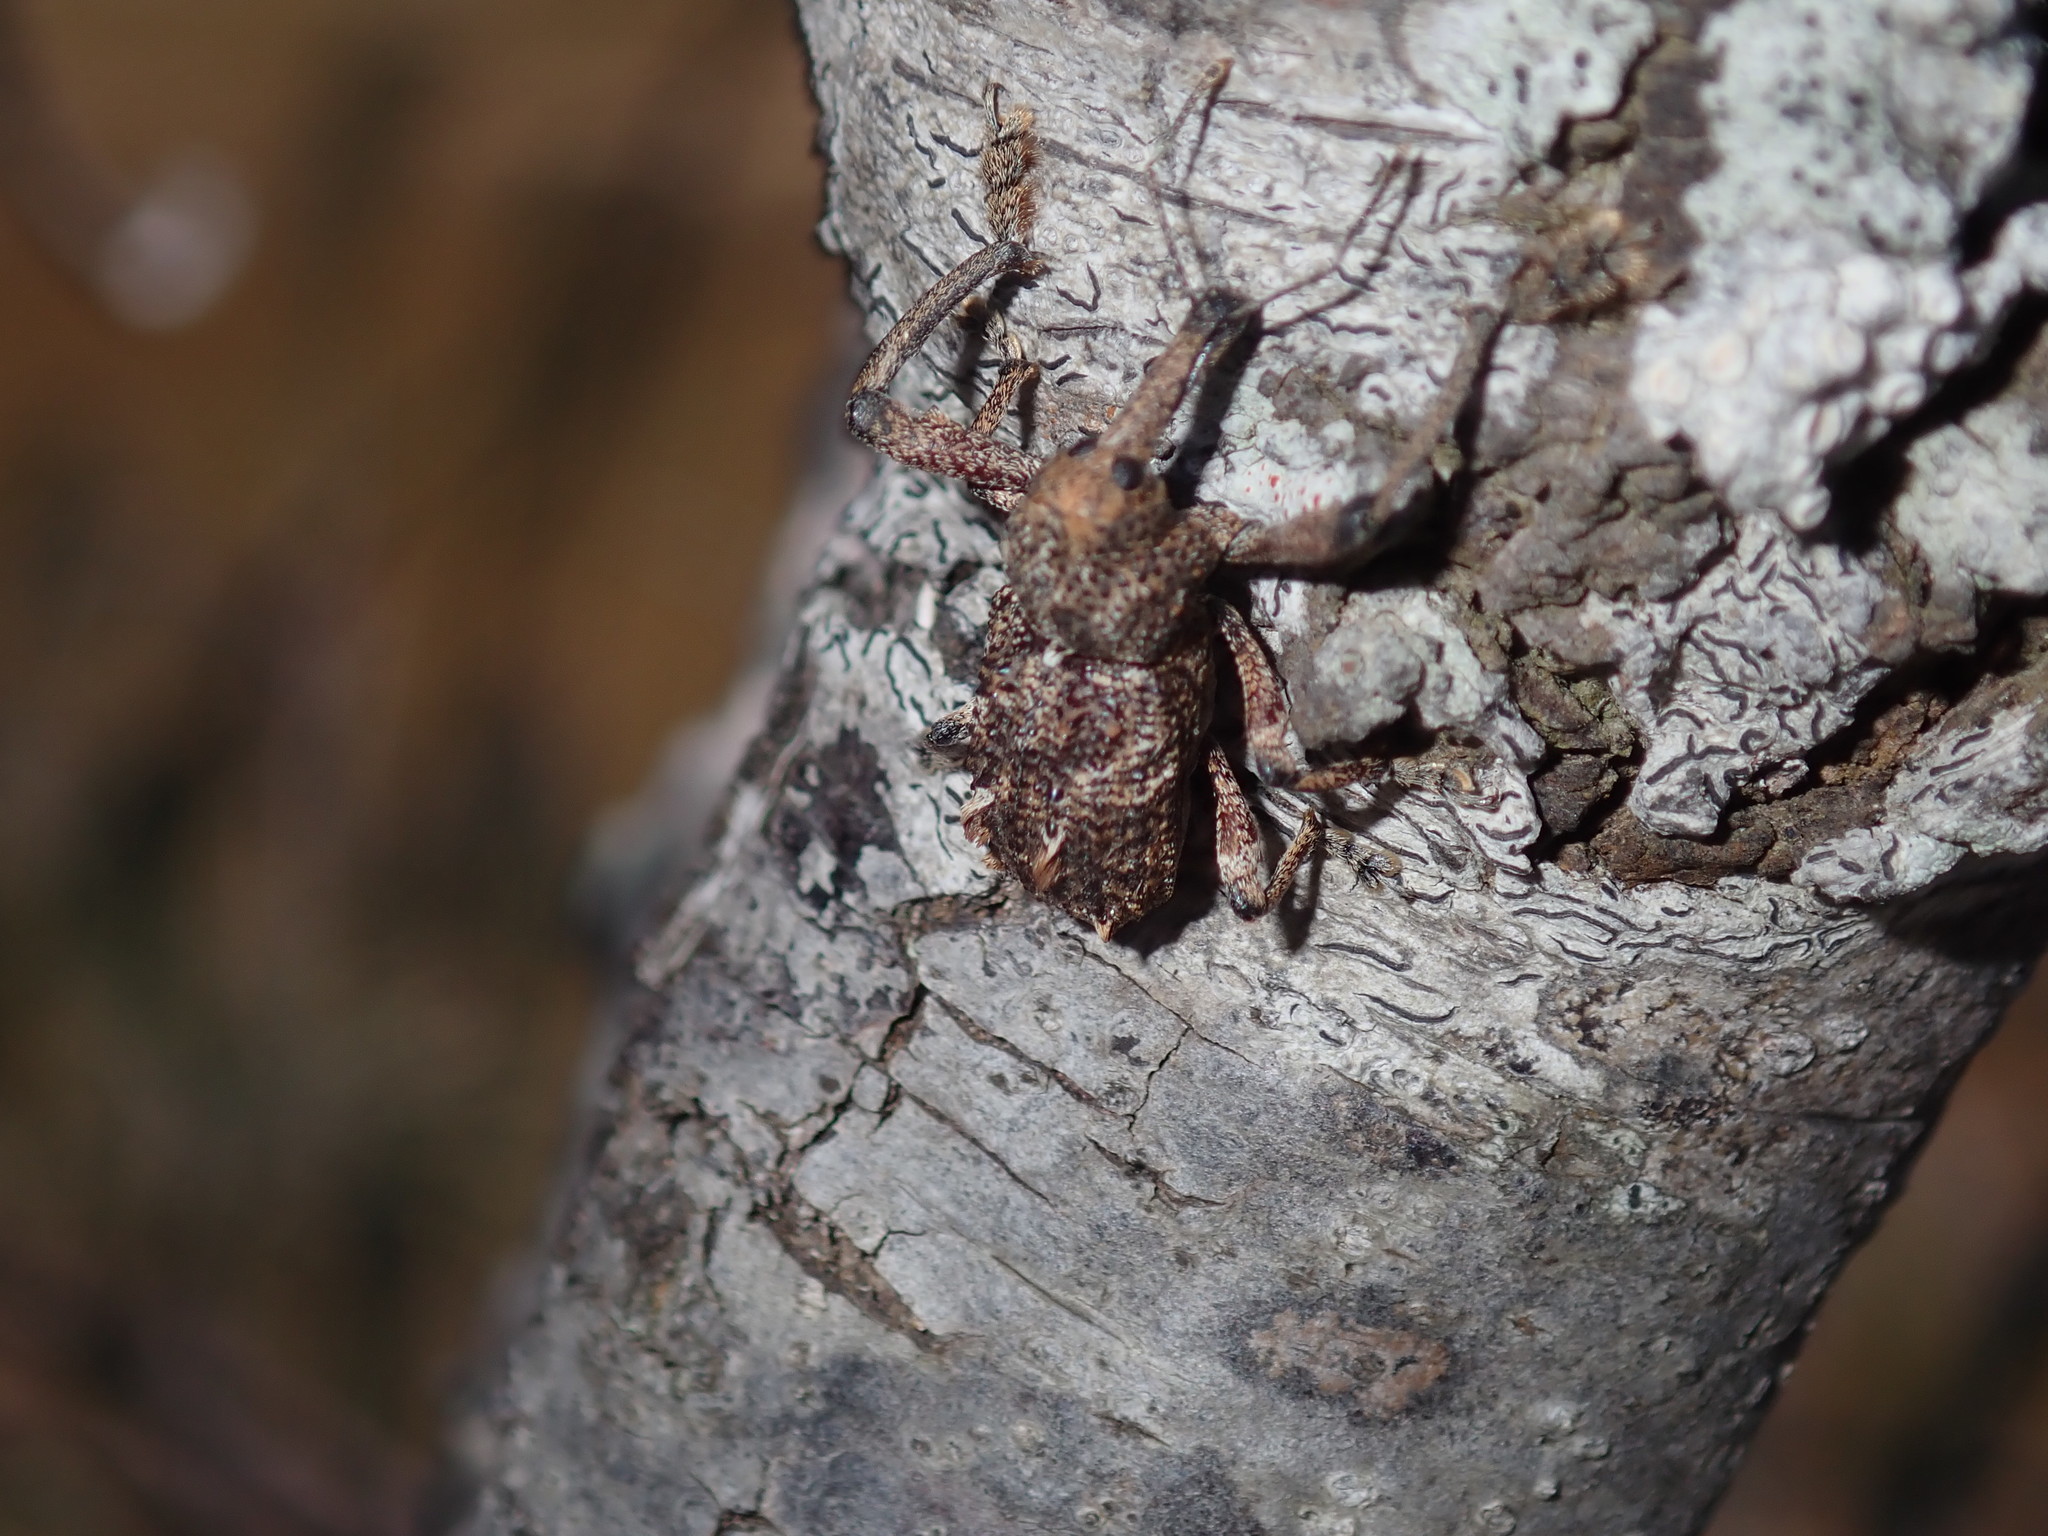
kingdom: Animalia
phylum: Arthropoda
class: Insecta
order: Coleoptera
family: Curculionidae
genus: Orthorhinus
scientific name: Orthorhinus cylindrirostris
